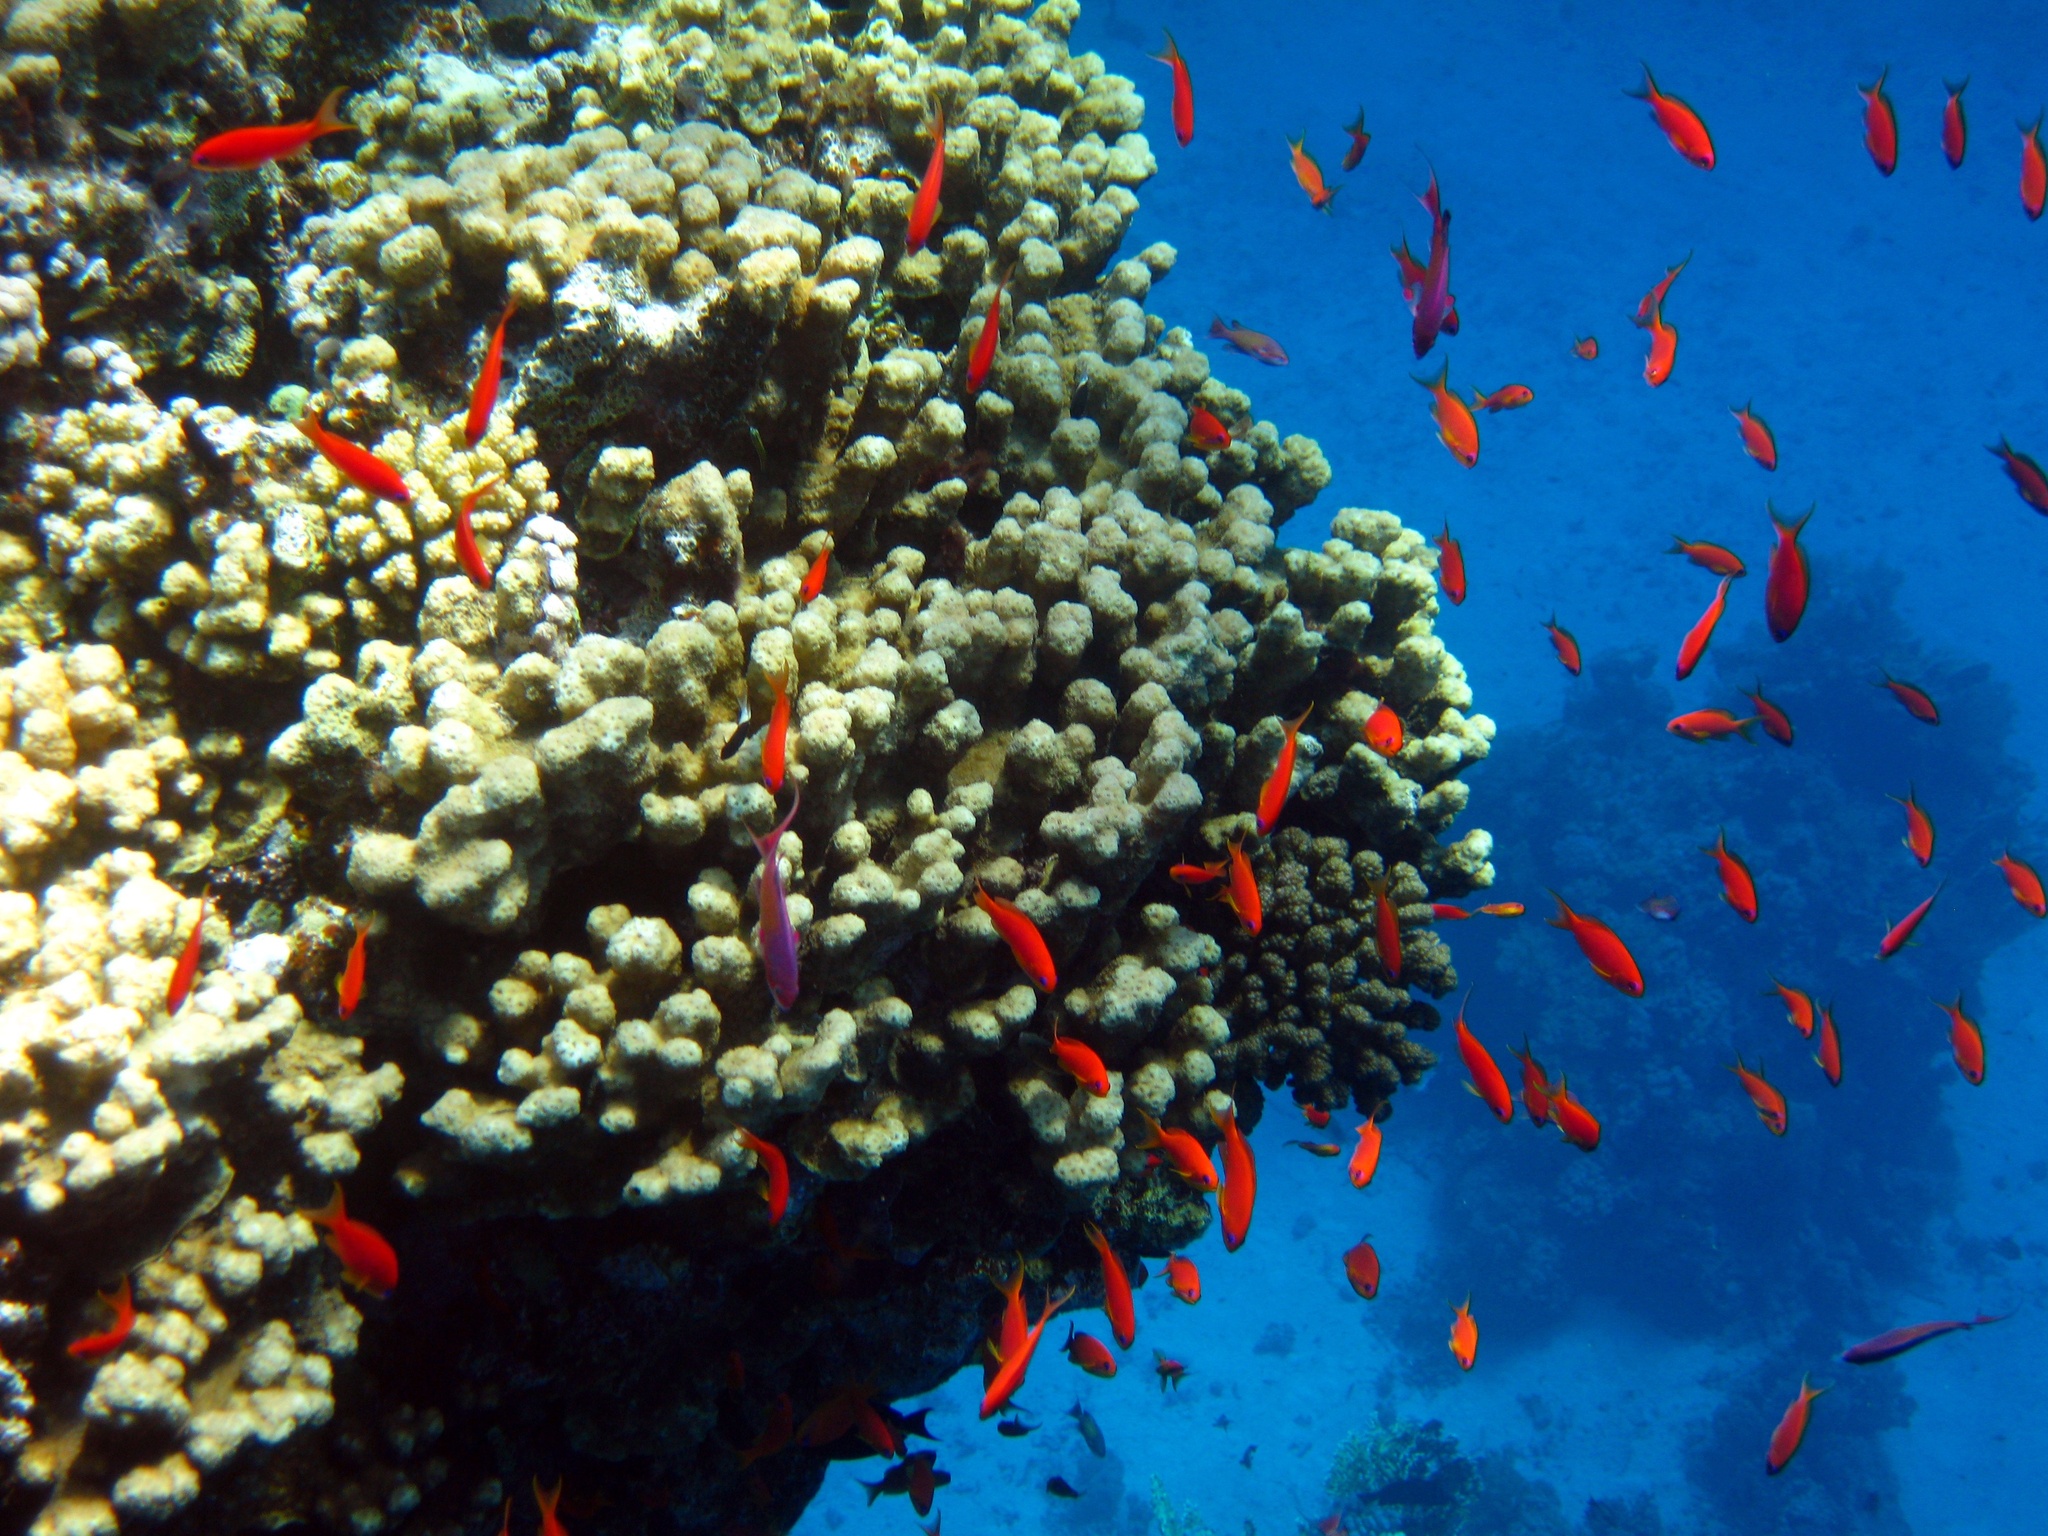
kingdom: Animalia
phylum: Chordata
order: Perciformes
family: Serranidae
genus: Pseudanthias
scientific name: Pseudanthias squamipinnis
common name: Scalefin anthias
